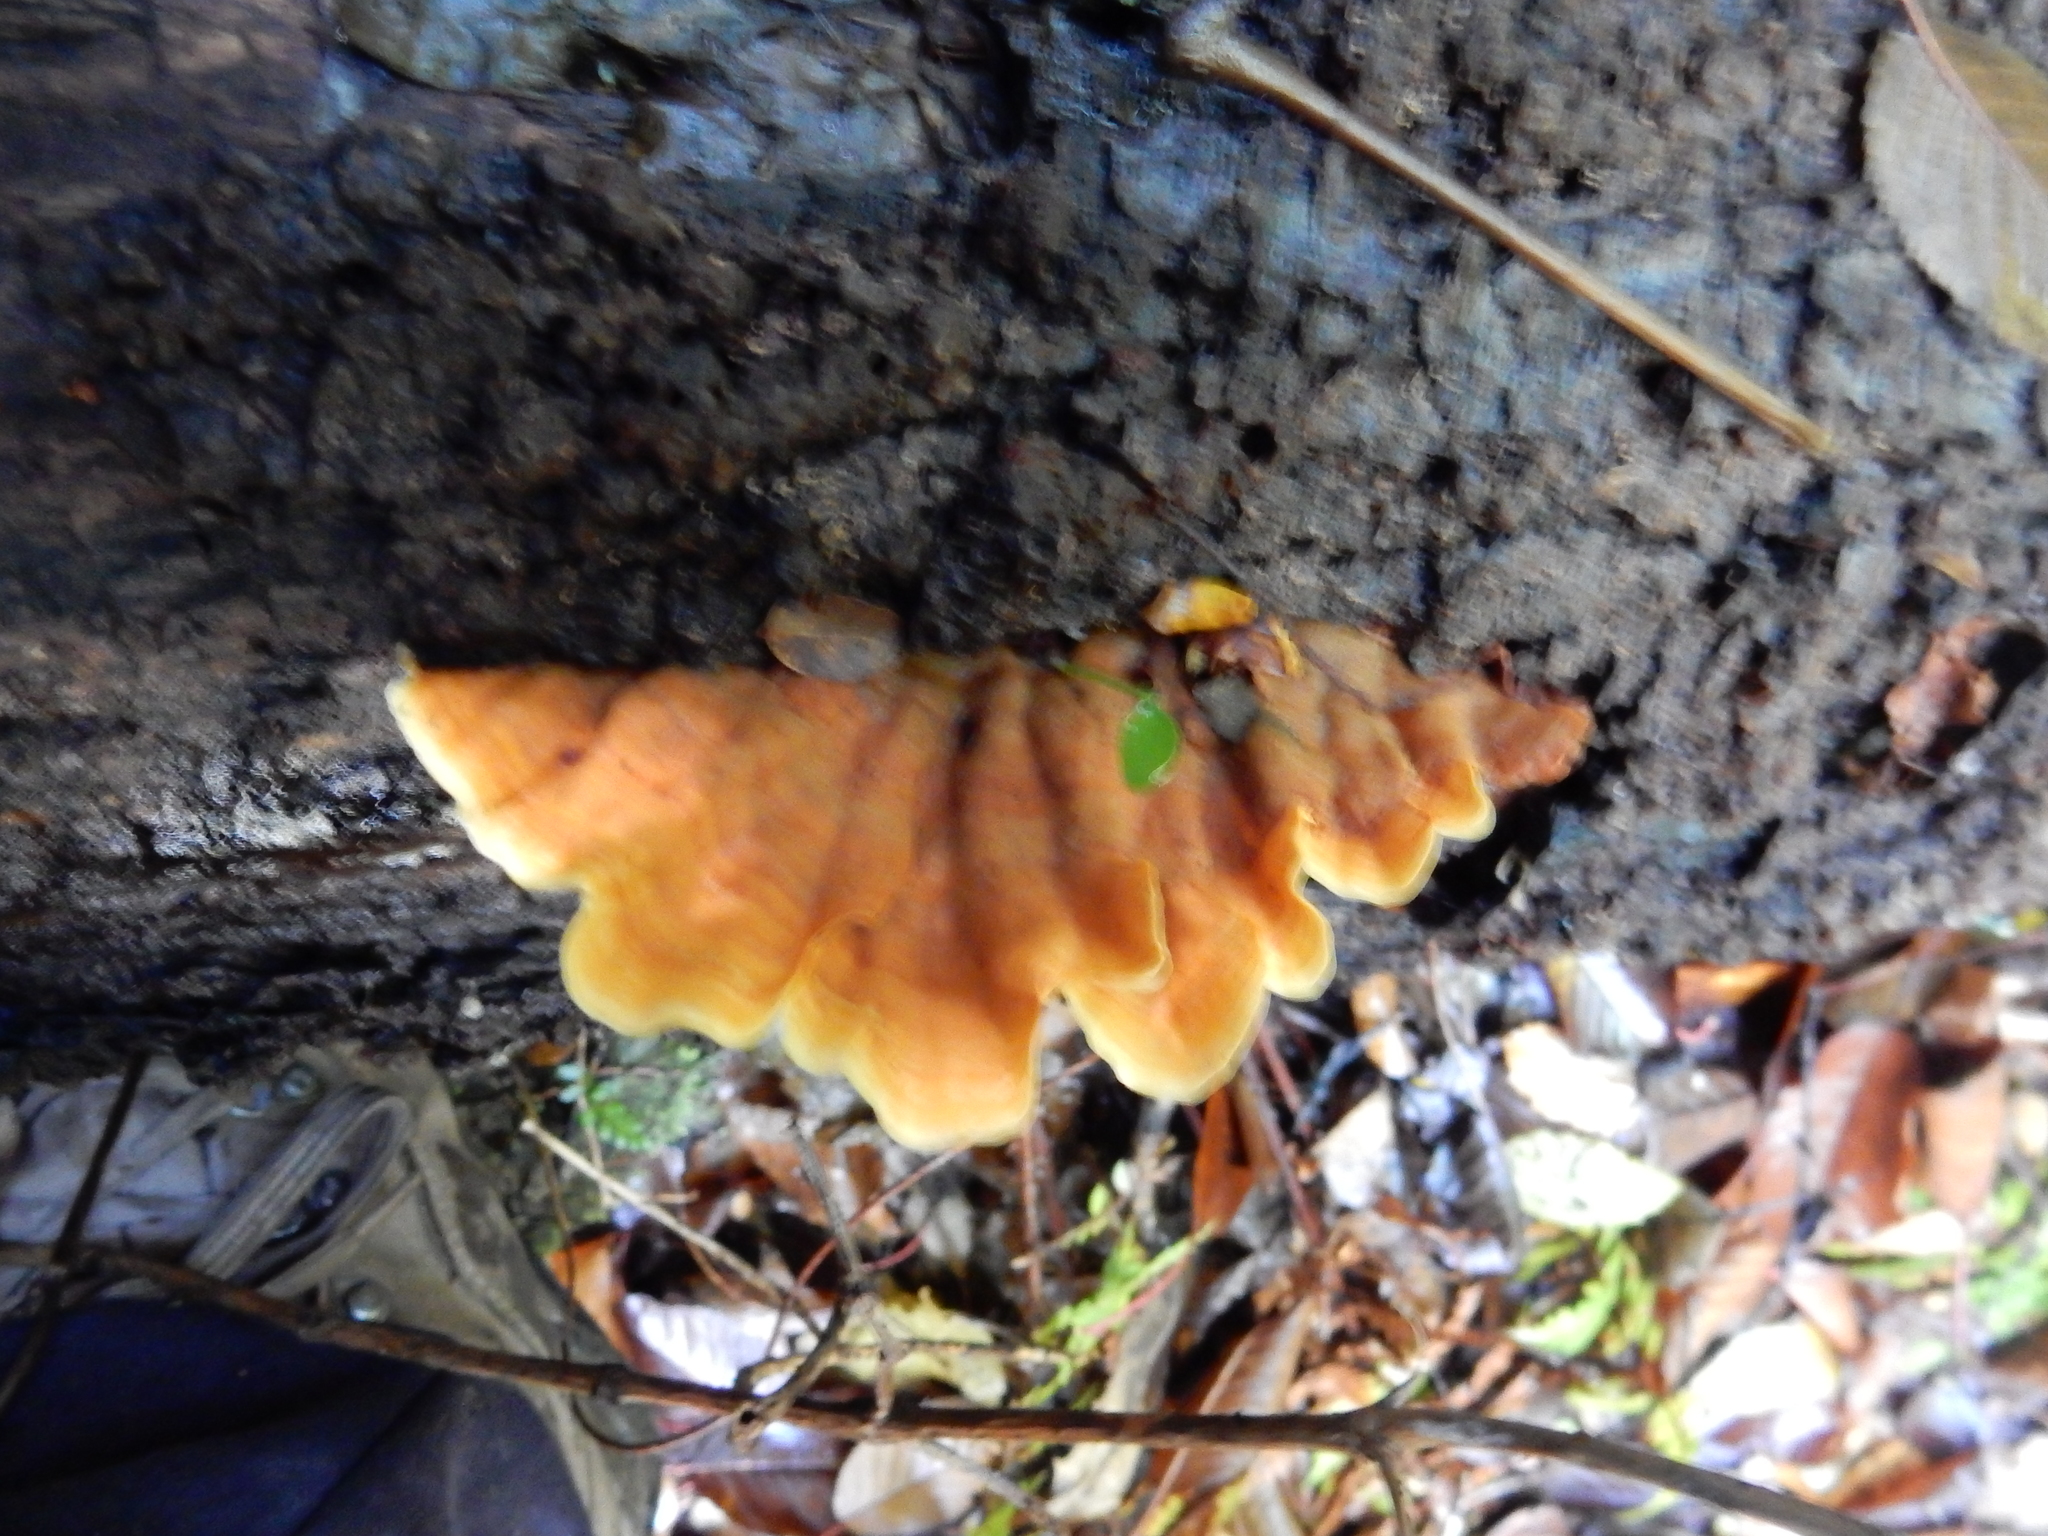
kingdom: Fungi
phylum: Basidiomycota
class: Agaricomycetes
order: Russulales
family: Stereaceae
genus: Stereum
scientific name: Stereum versicolor
